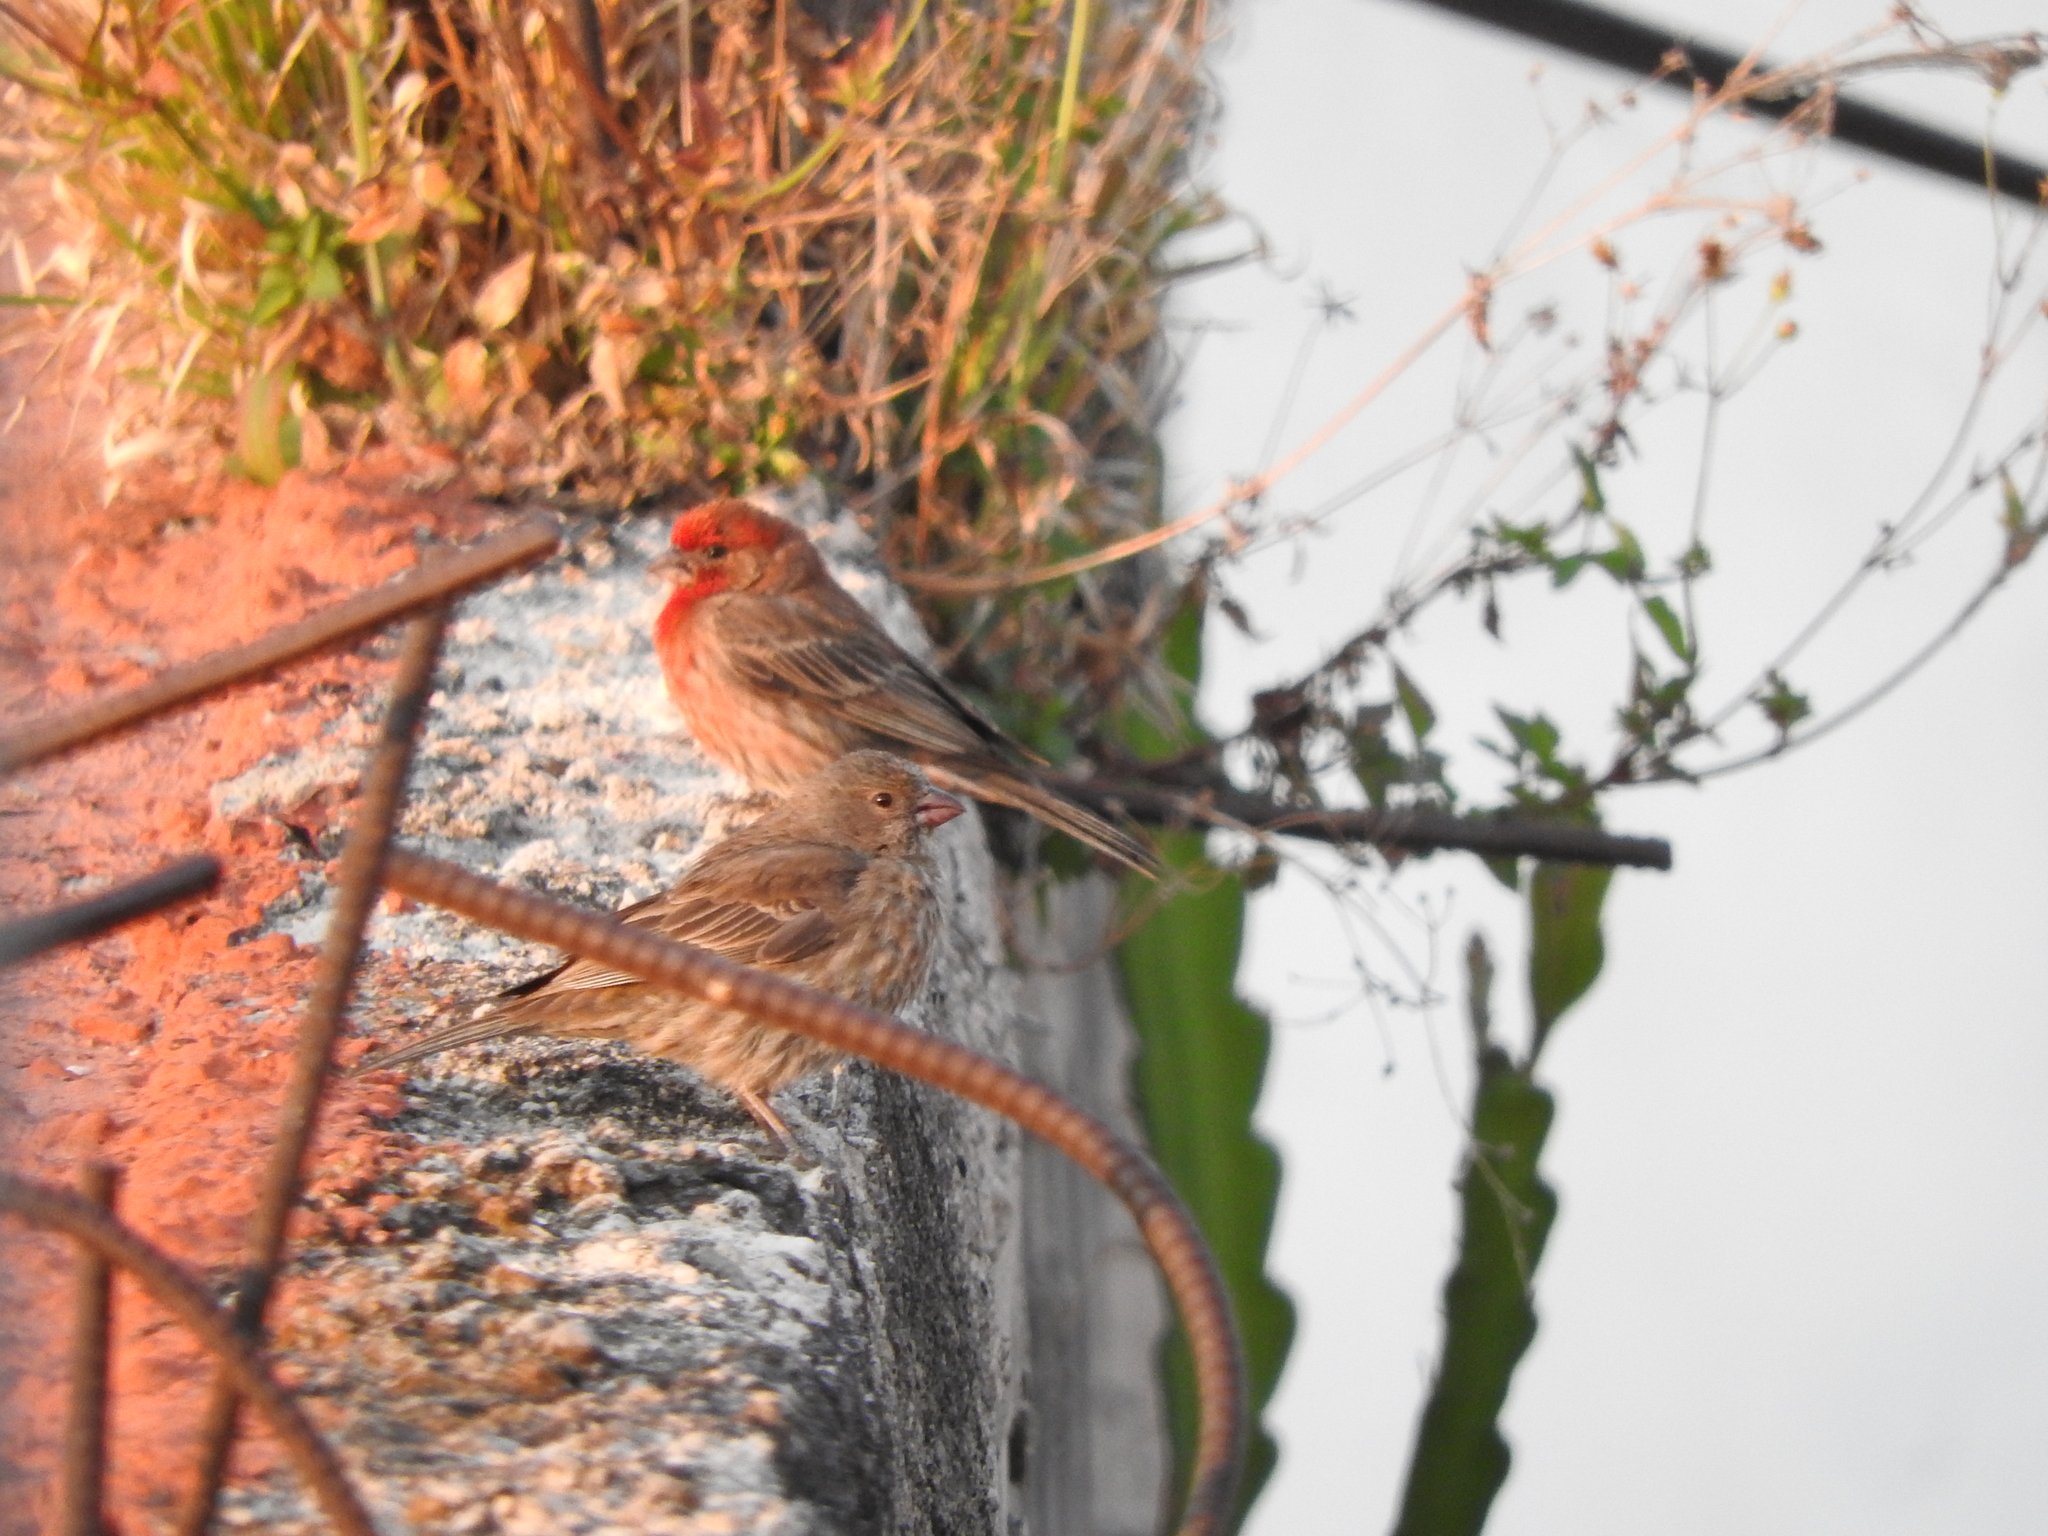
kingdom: Animalia
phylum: Chordata
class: Aves
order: Passeriformes
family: Fringillidae
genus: Haemorhous
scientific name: Haemorhous mexicanus
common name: House finch
